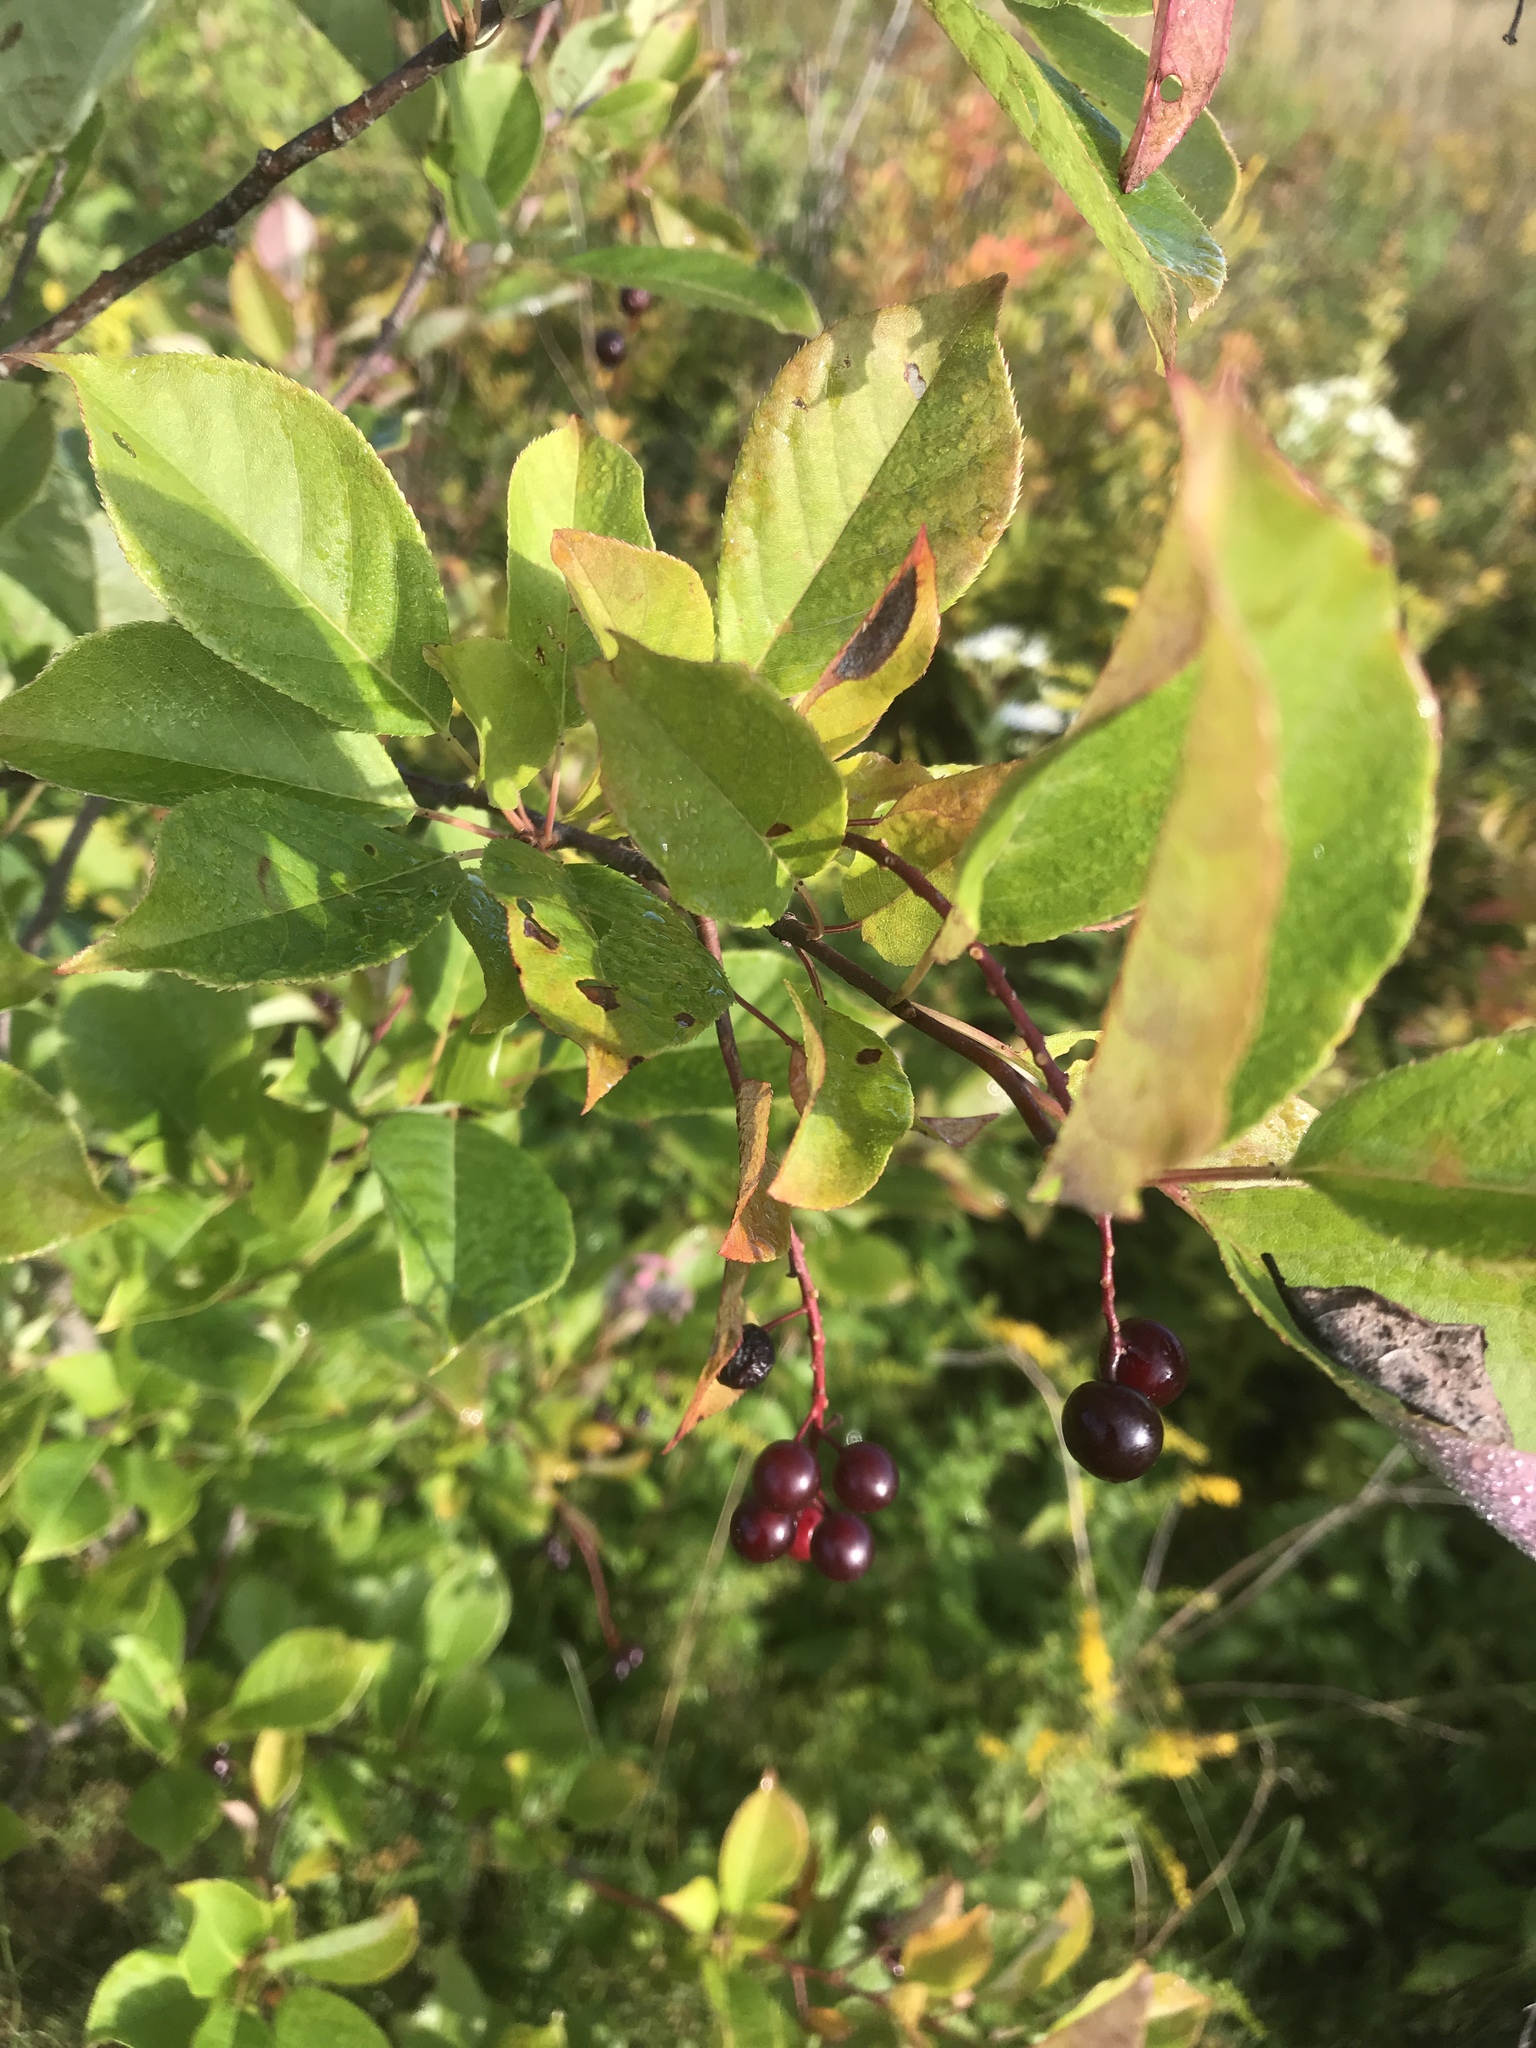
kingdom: Plantae
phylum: Tracheophyta
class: Magnoliopsida
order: Rosales
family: Rosaceae
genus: Prunus
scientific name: Prunus virginiana
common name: Chokecherry
